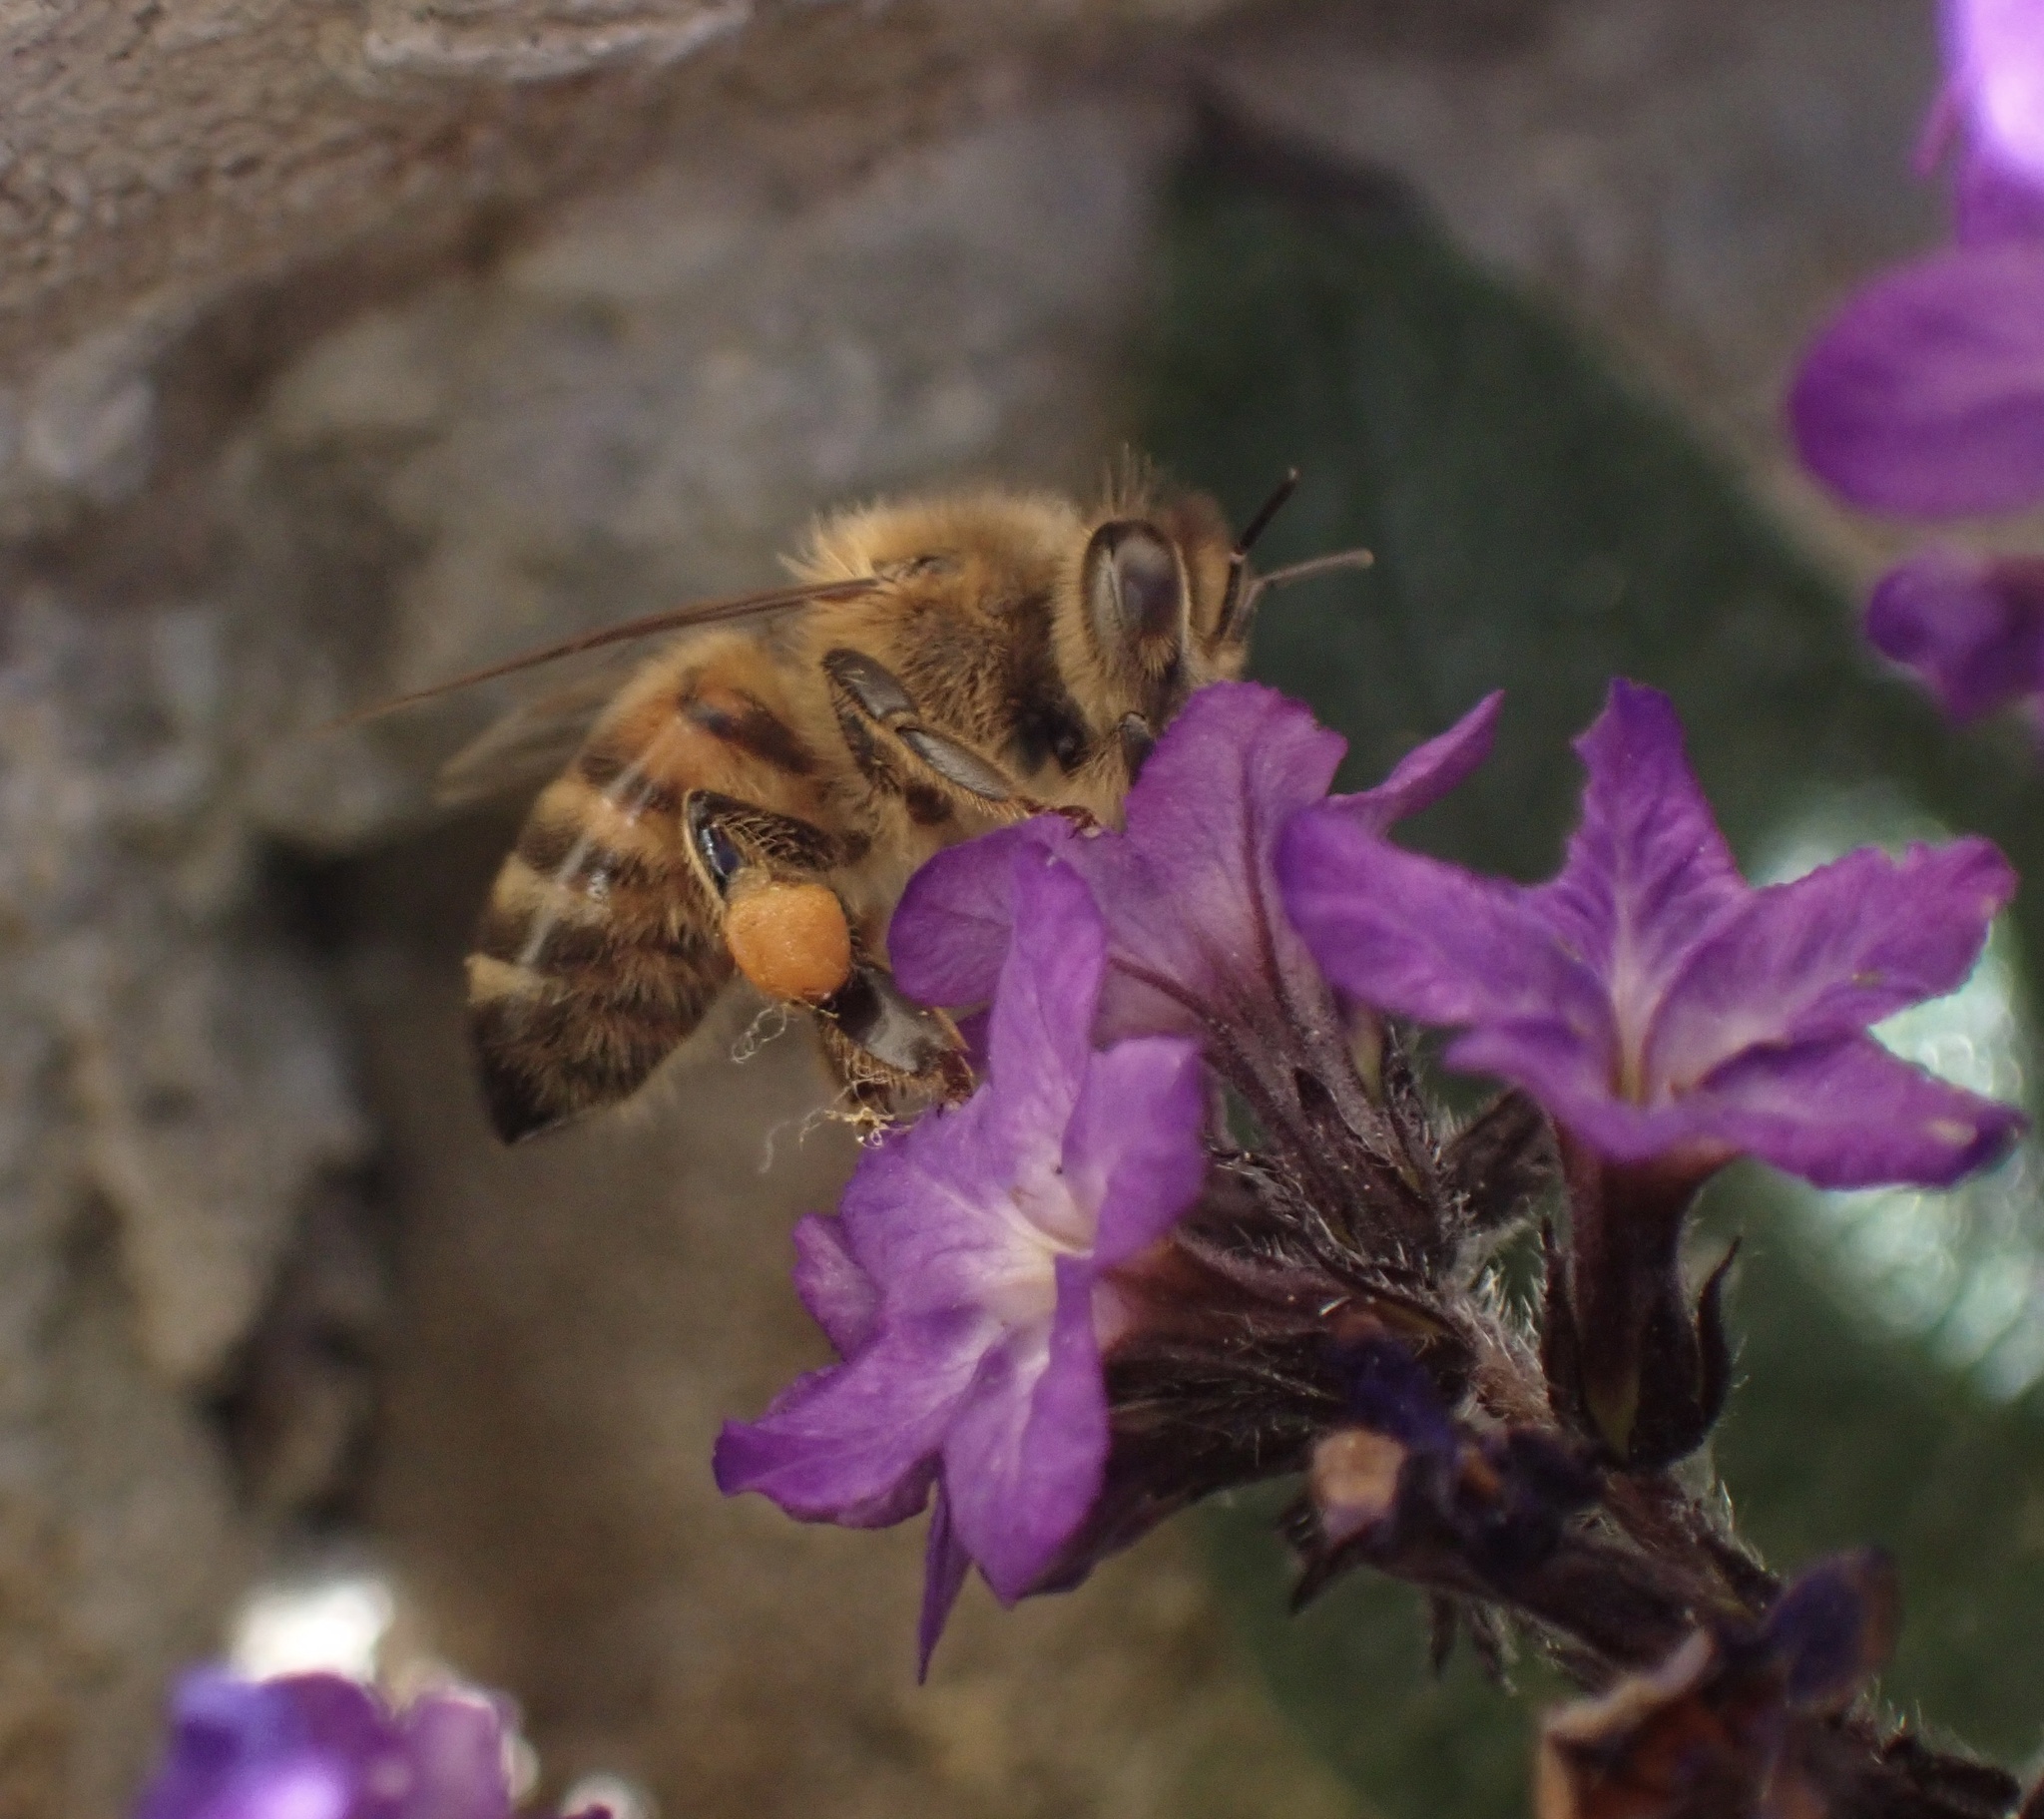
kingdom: Animalia
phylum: Arthropoda
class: Insecta
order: Hymenoptera
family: Apidae
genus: Apis
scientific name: Apis mellifera
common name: Honey bee
